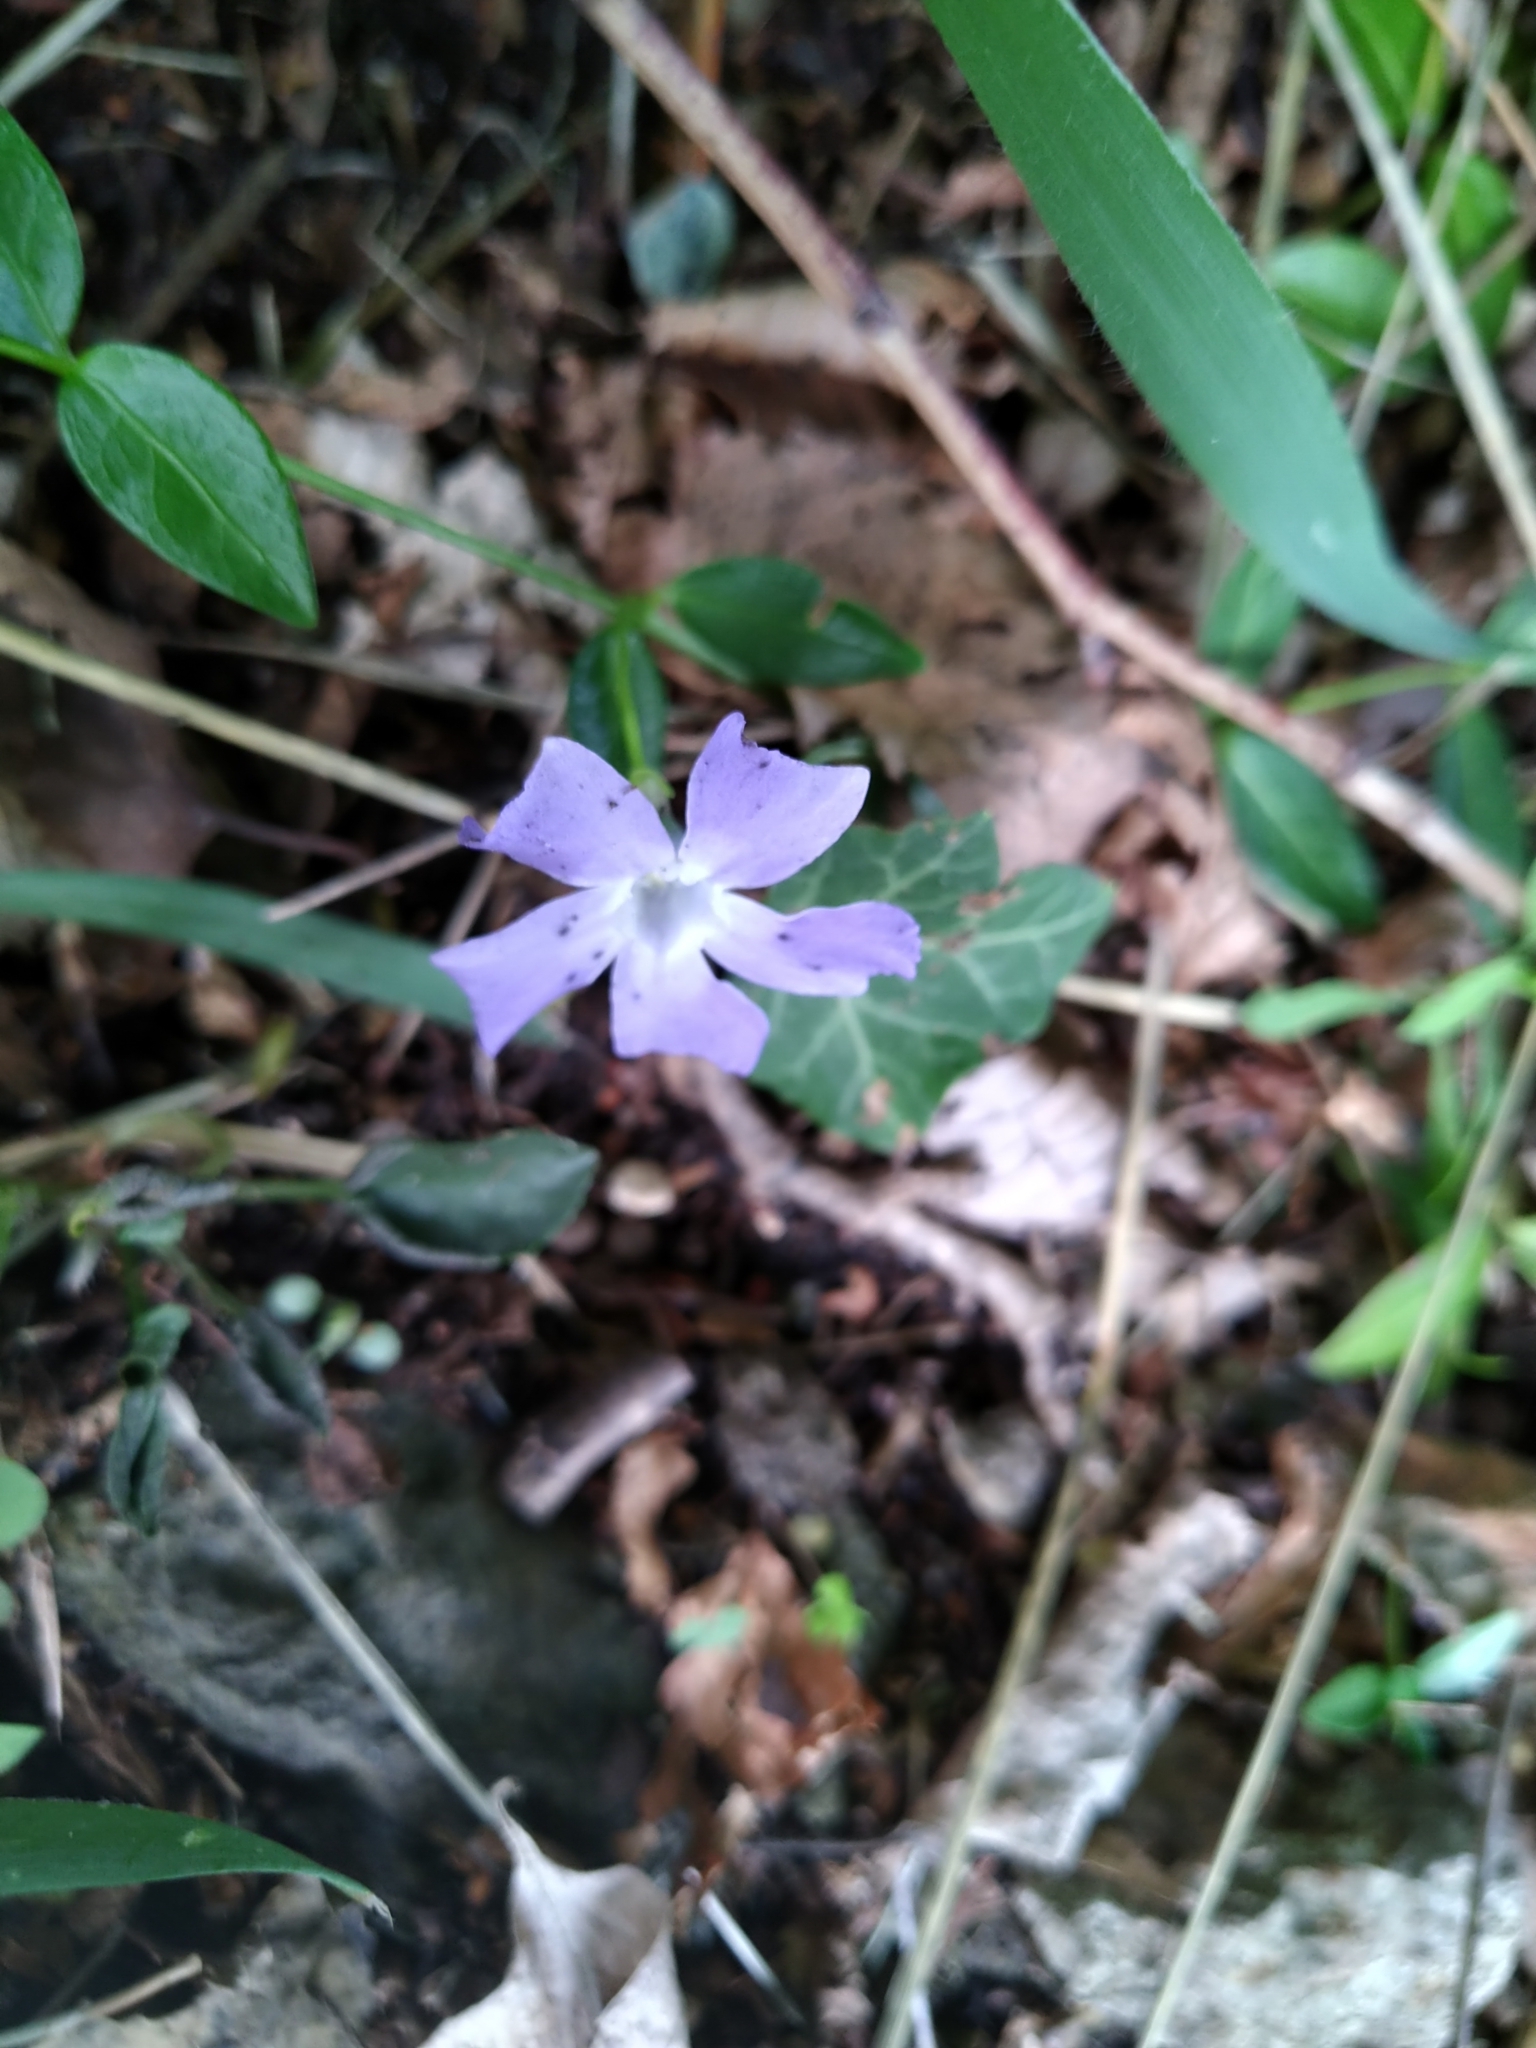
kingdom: Plantae
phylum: Tracheophyta
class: Magnoliopsida
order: Gentianales
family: Apocynaceae
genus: Vinca
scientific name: Vinca minor
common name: Lesser periwinkle
